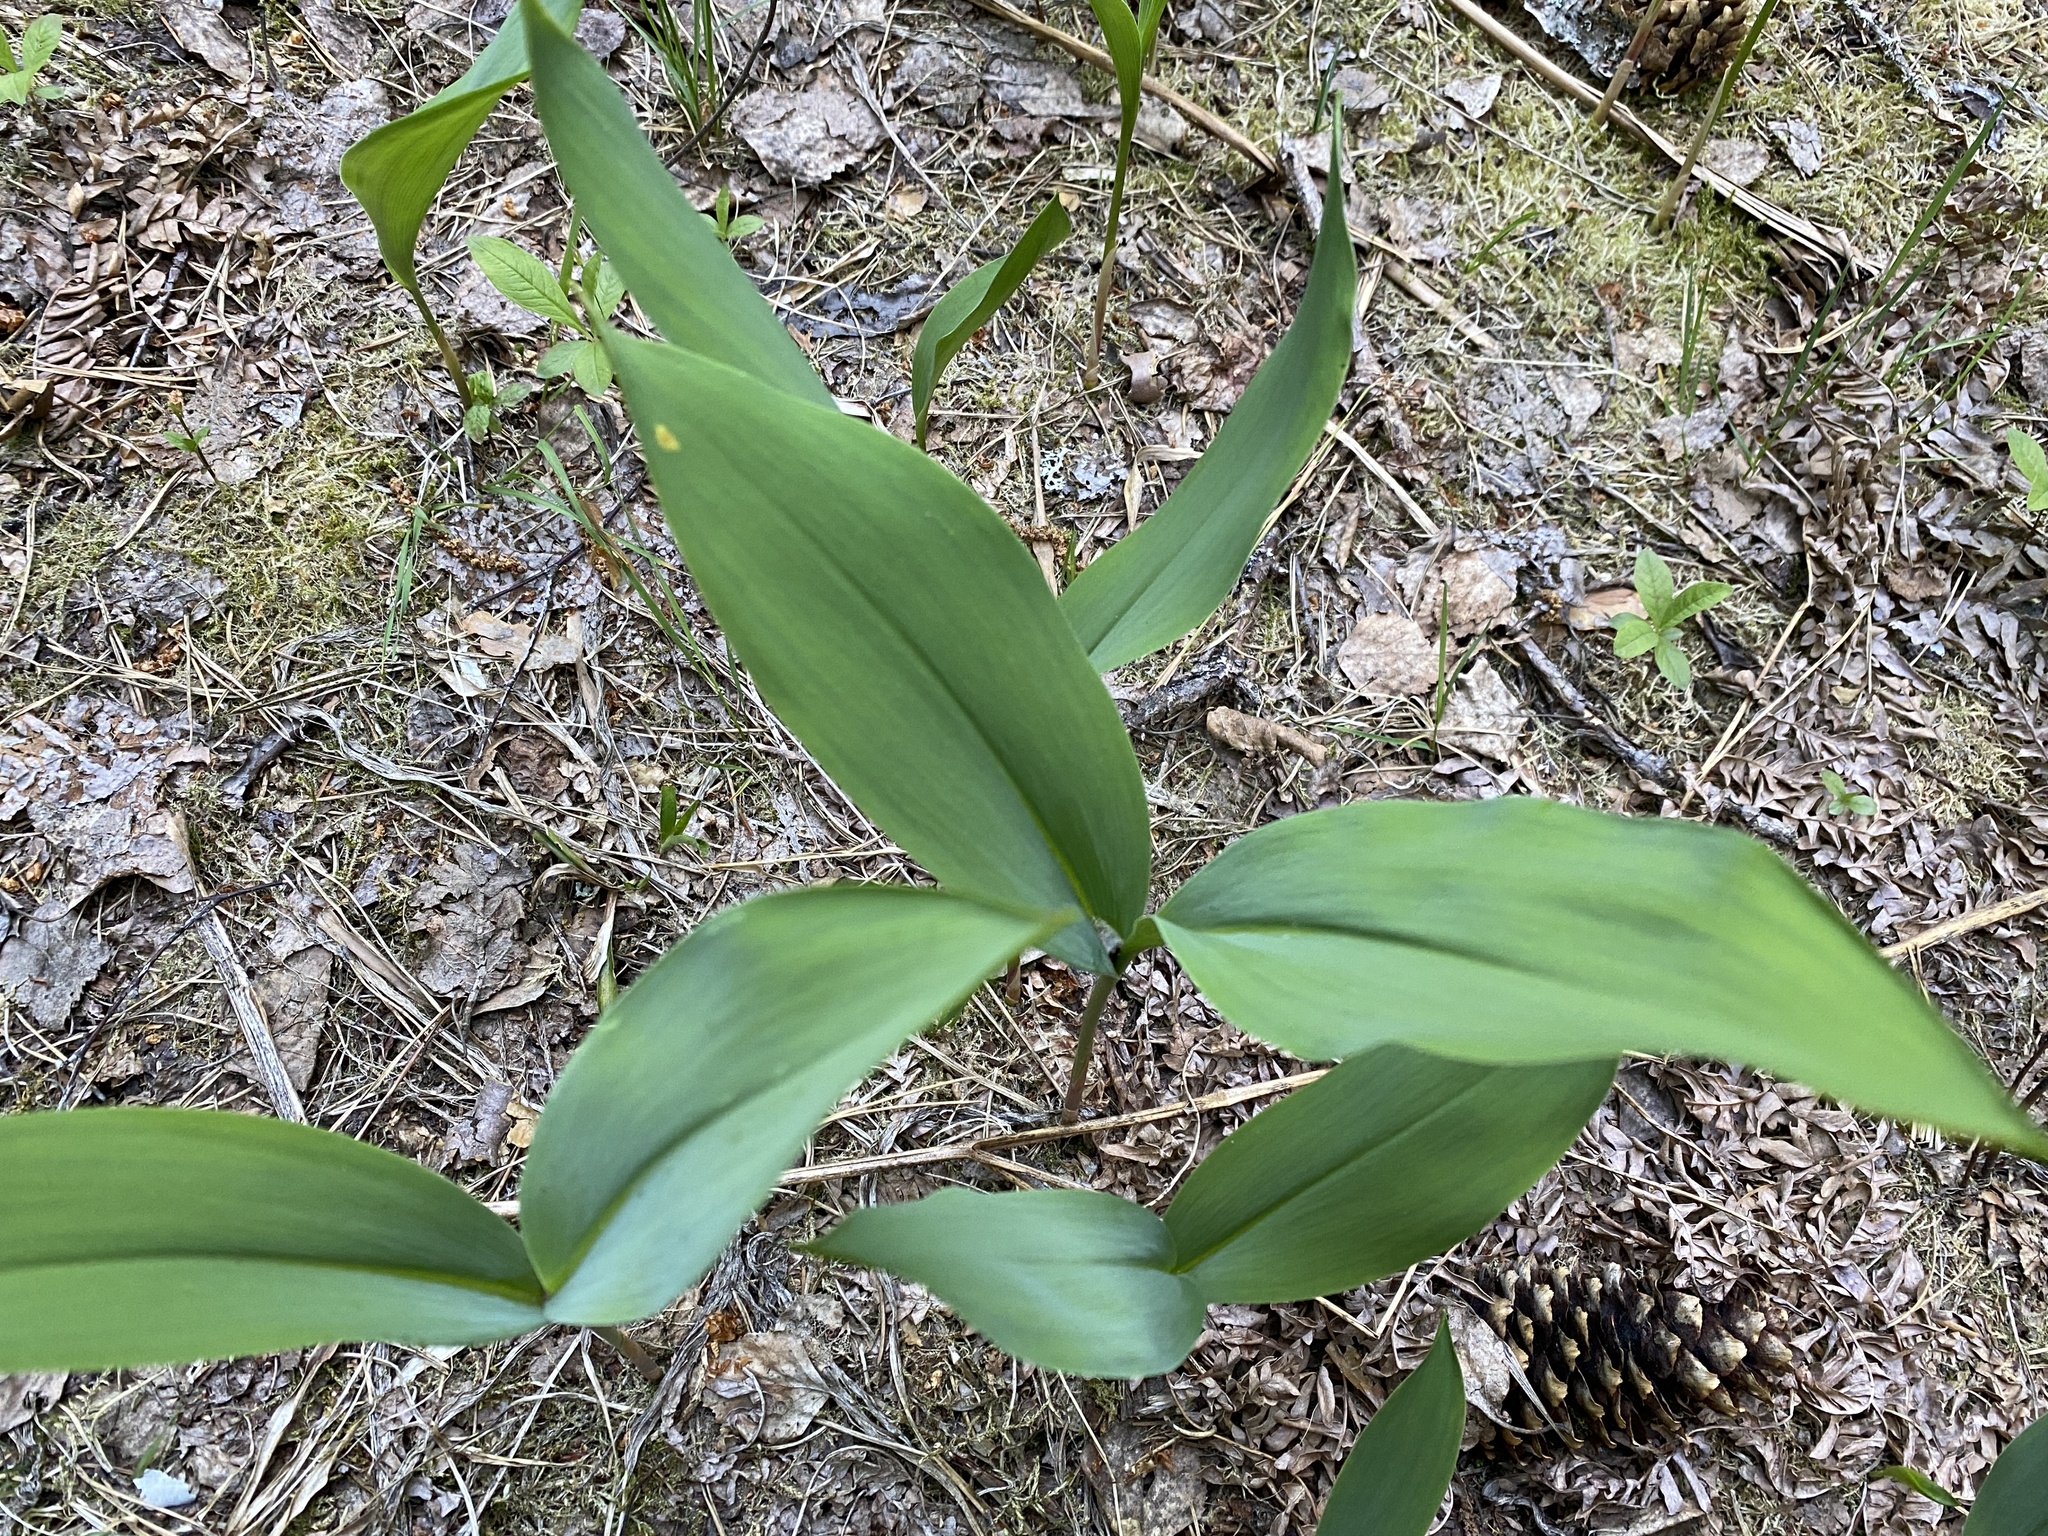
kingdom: Plantae
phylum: Tracheophyta
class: Liliopsida
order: Asparagales
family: Asparagaceae
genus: Convallaria
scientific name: Convallaria majalis
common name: Lily-of-the-valley
